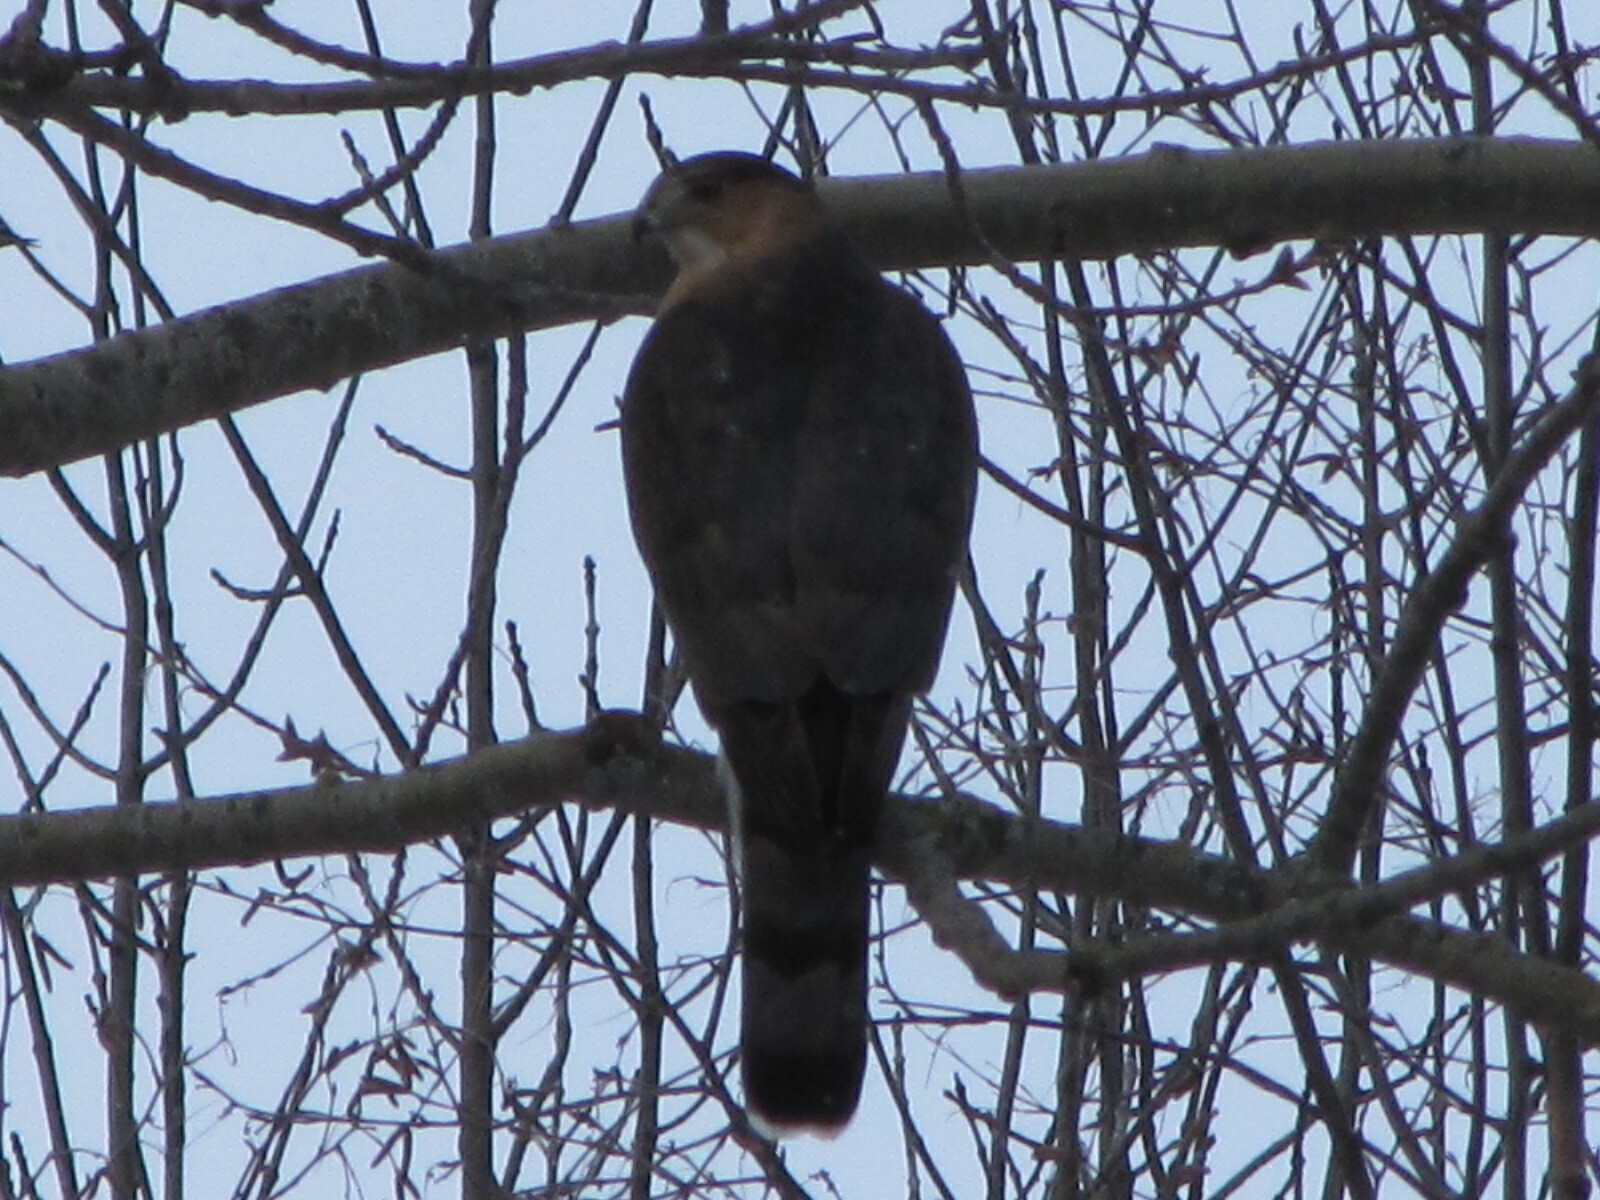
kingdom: Animalia
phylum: Chordata
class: Aves
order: Accipitriformes
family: Accipitridae
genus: Accipiter
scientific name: Accipiter cooperii
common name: Cooper's hawk
